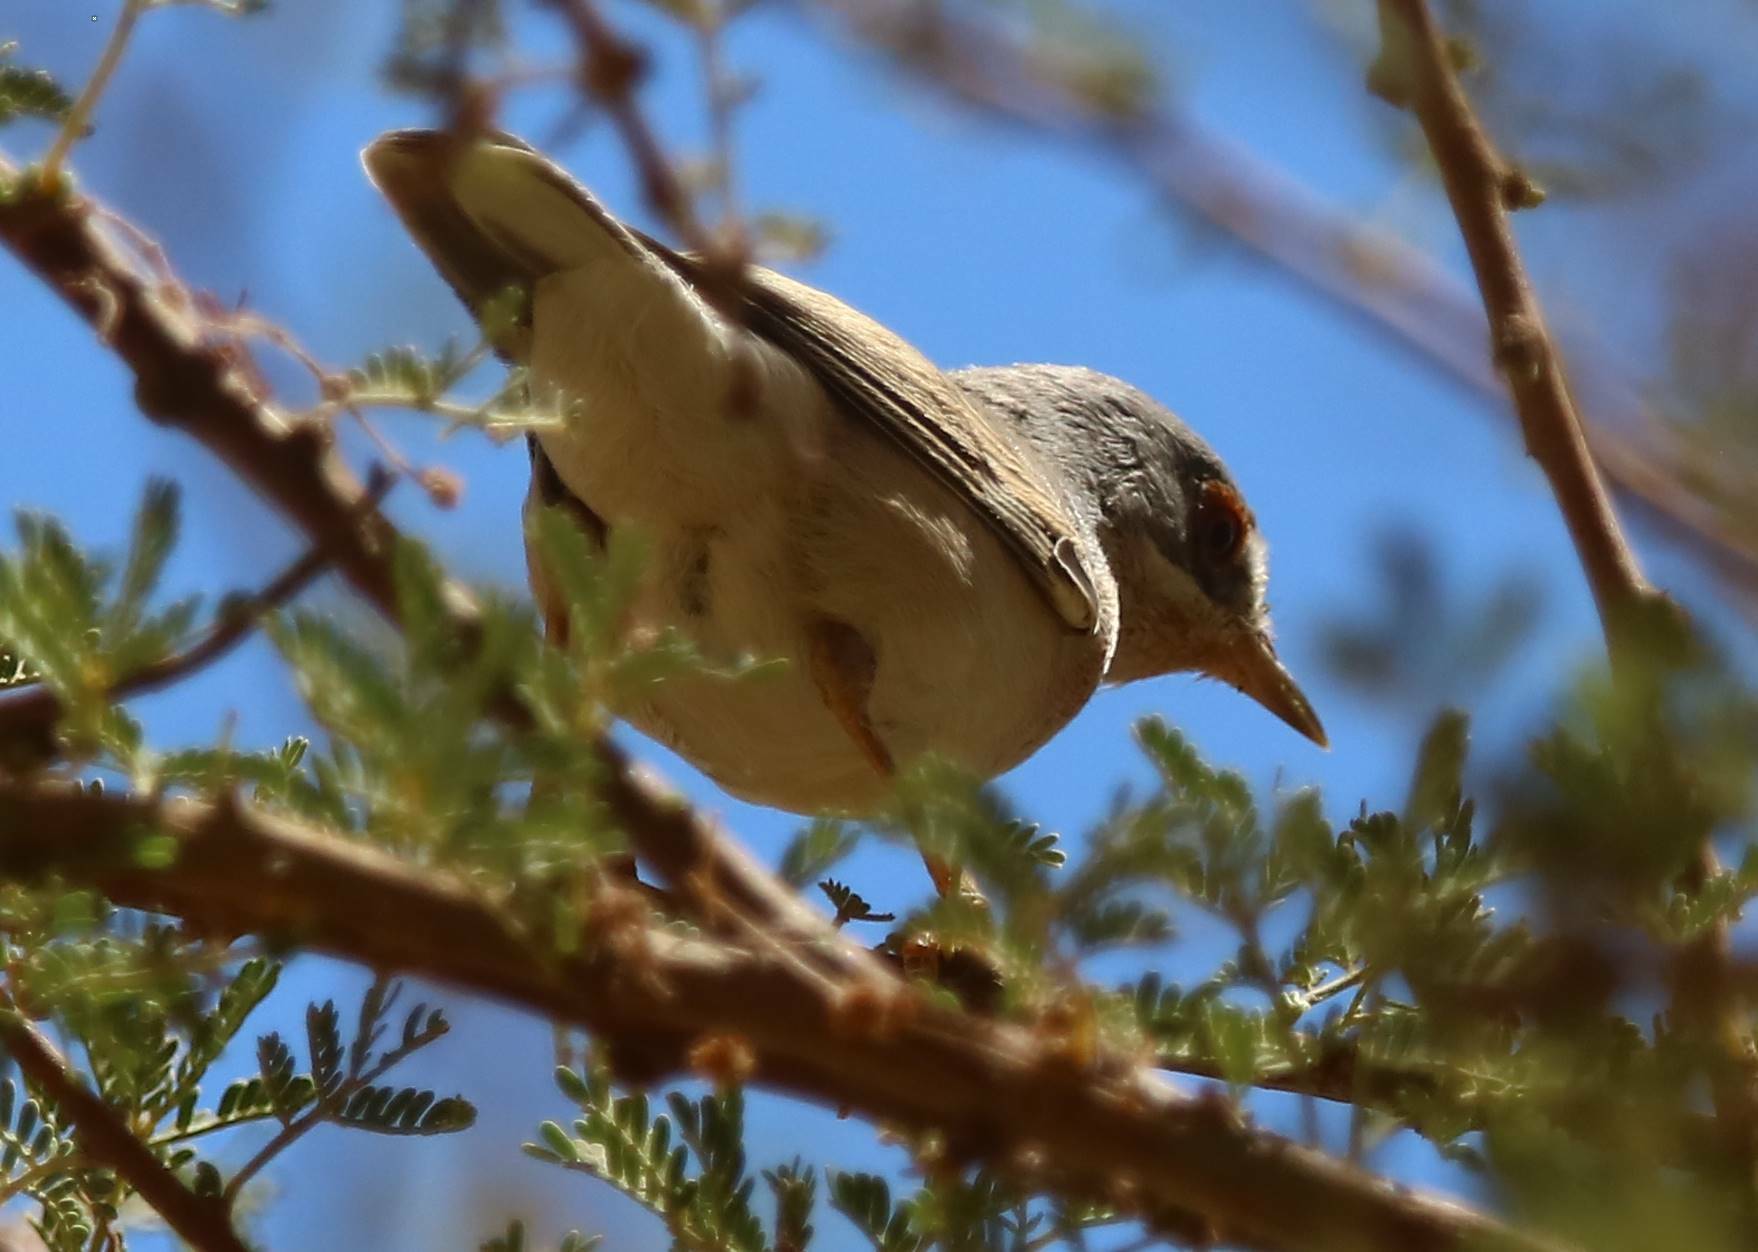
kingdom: Animalia
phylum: Chordata
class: Aves
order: Passeriformes
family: Sylviidae
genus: Curruca
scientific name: Curruca iberiae
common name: Western subalpine warbler
